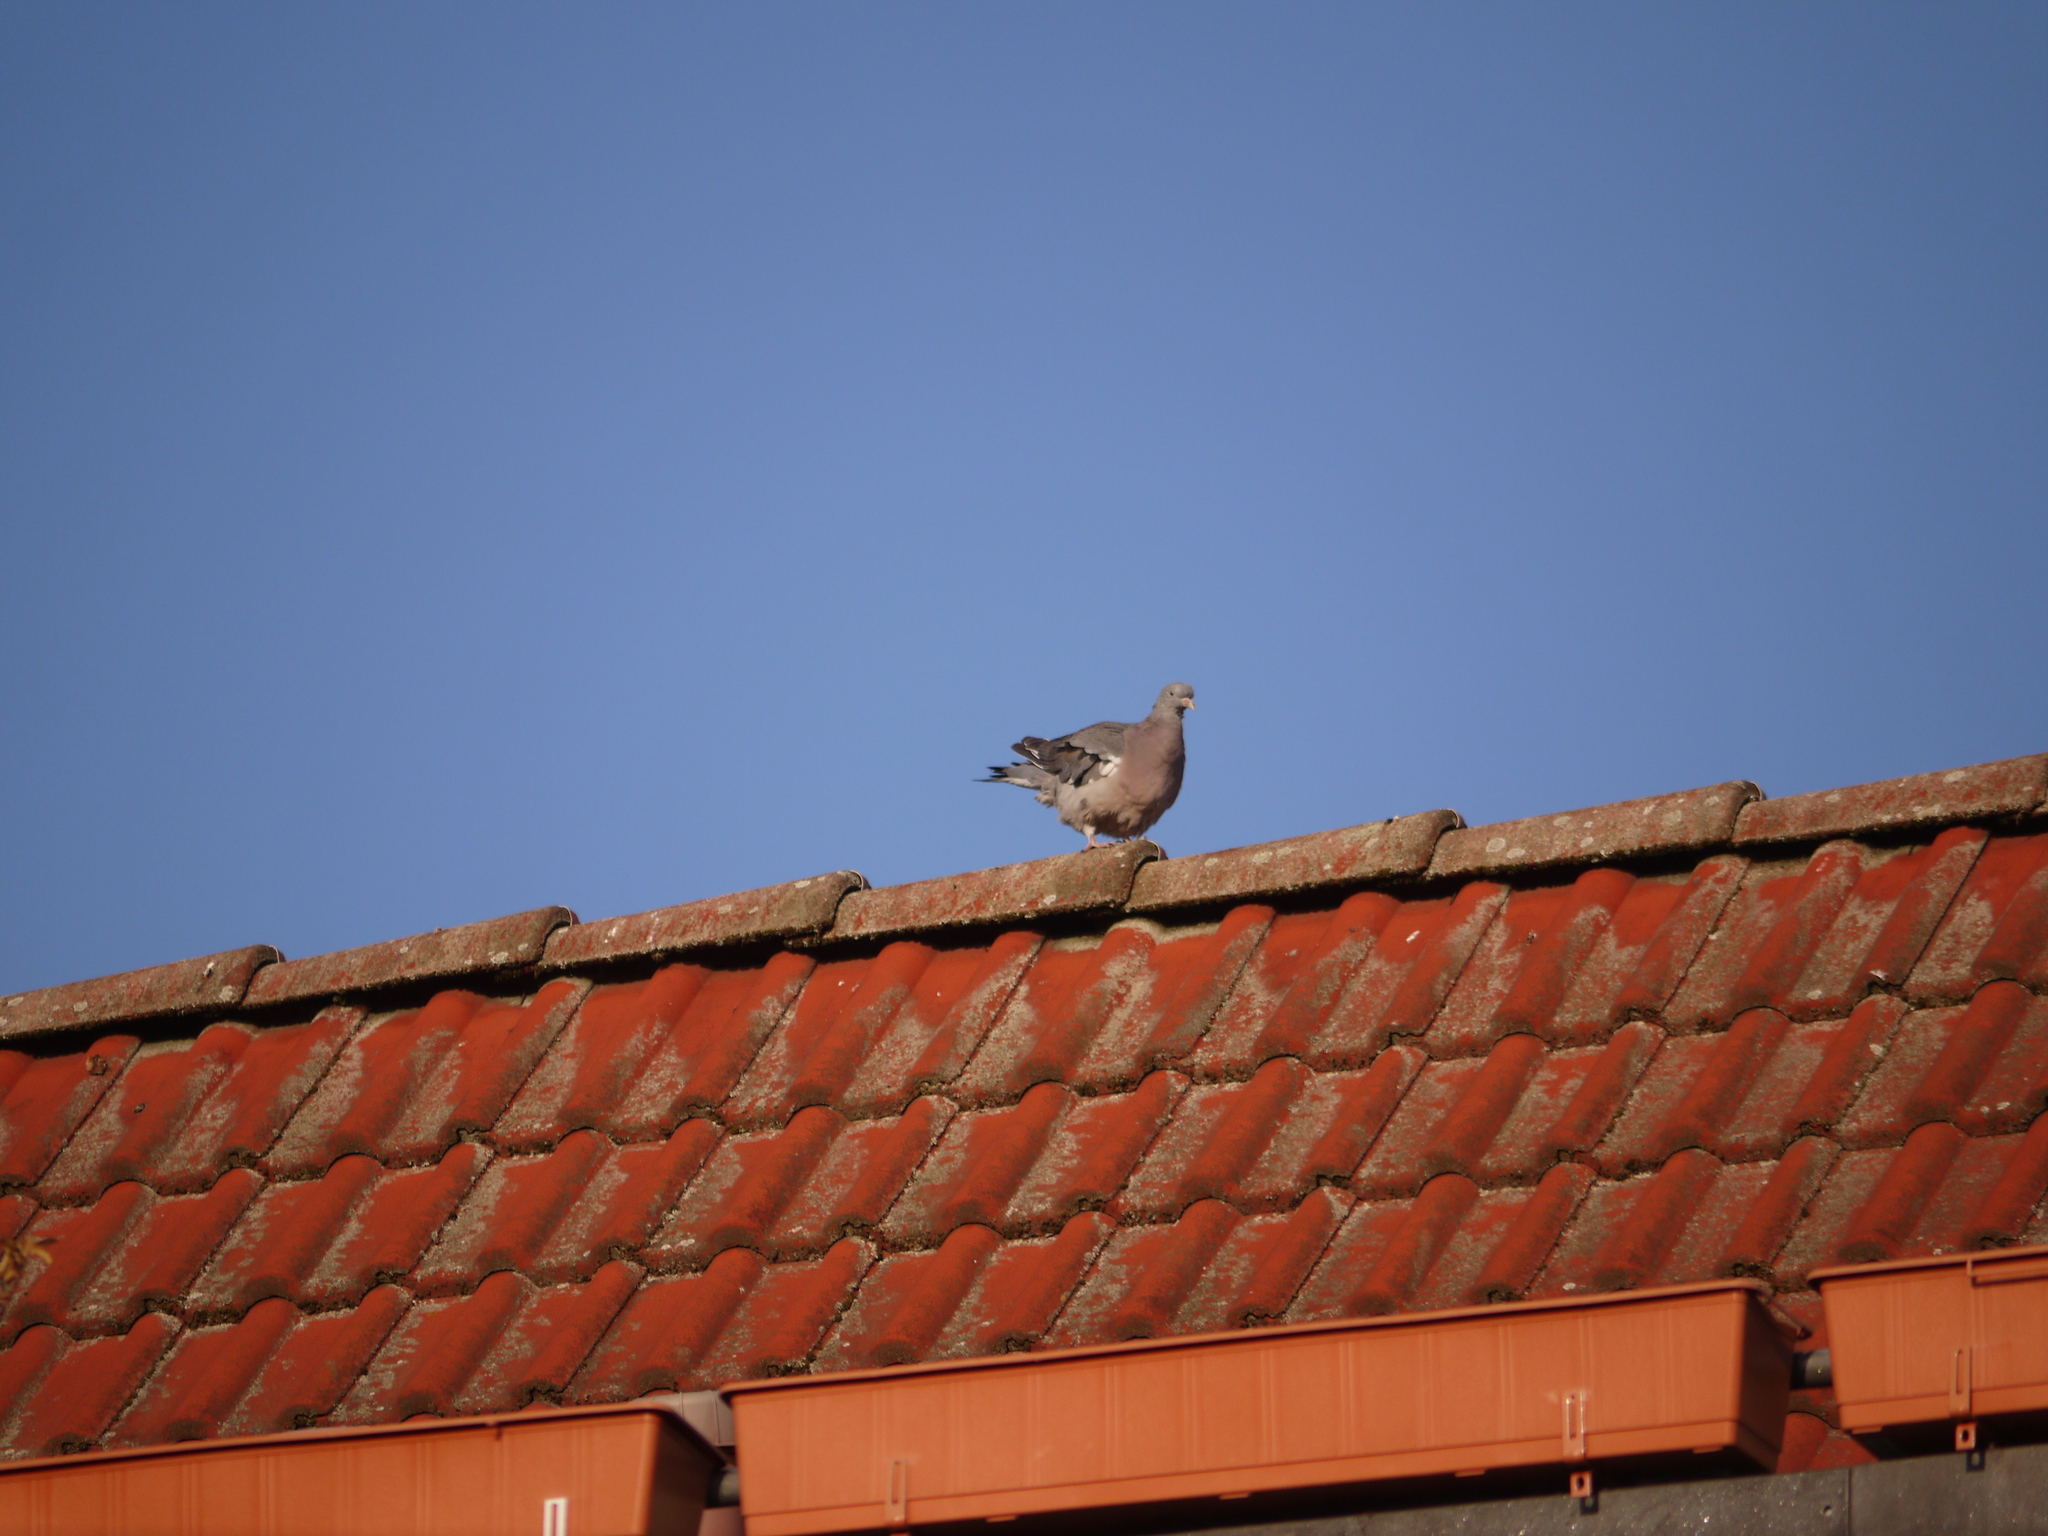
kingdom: Animalia
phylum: Chordata
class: Aves
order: Columbiformes
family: Columbidae
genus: Columba
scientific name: Columba palumbus
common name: Common wood pigeon
